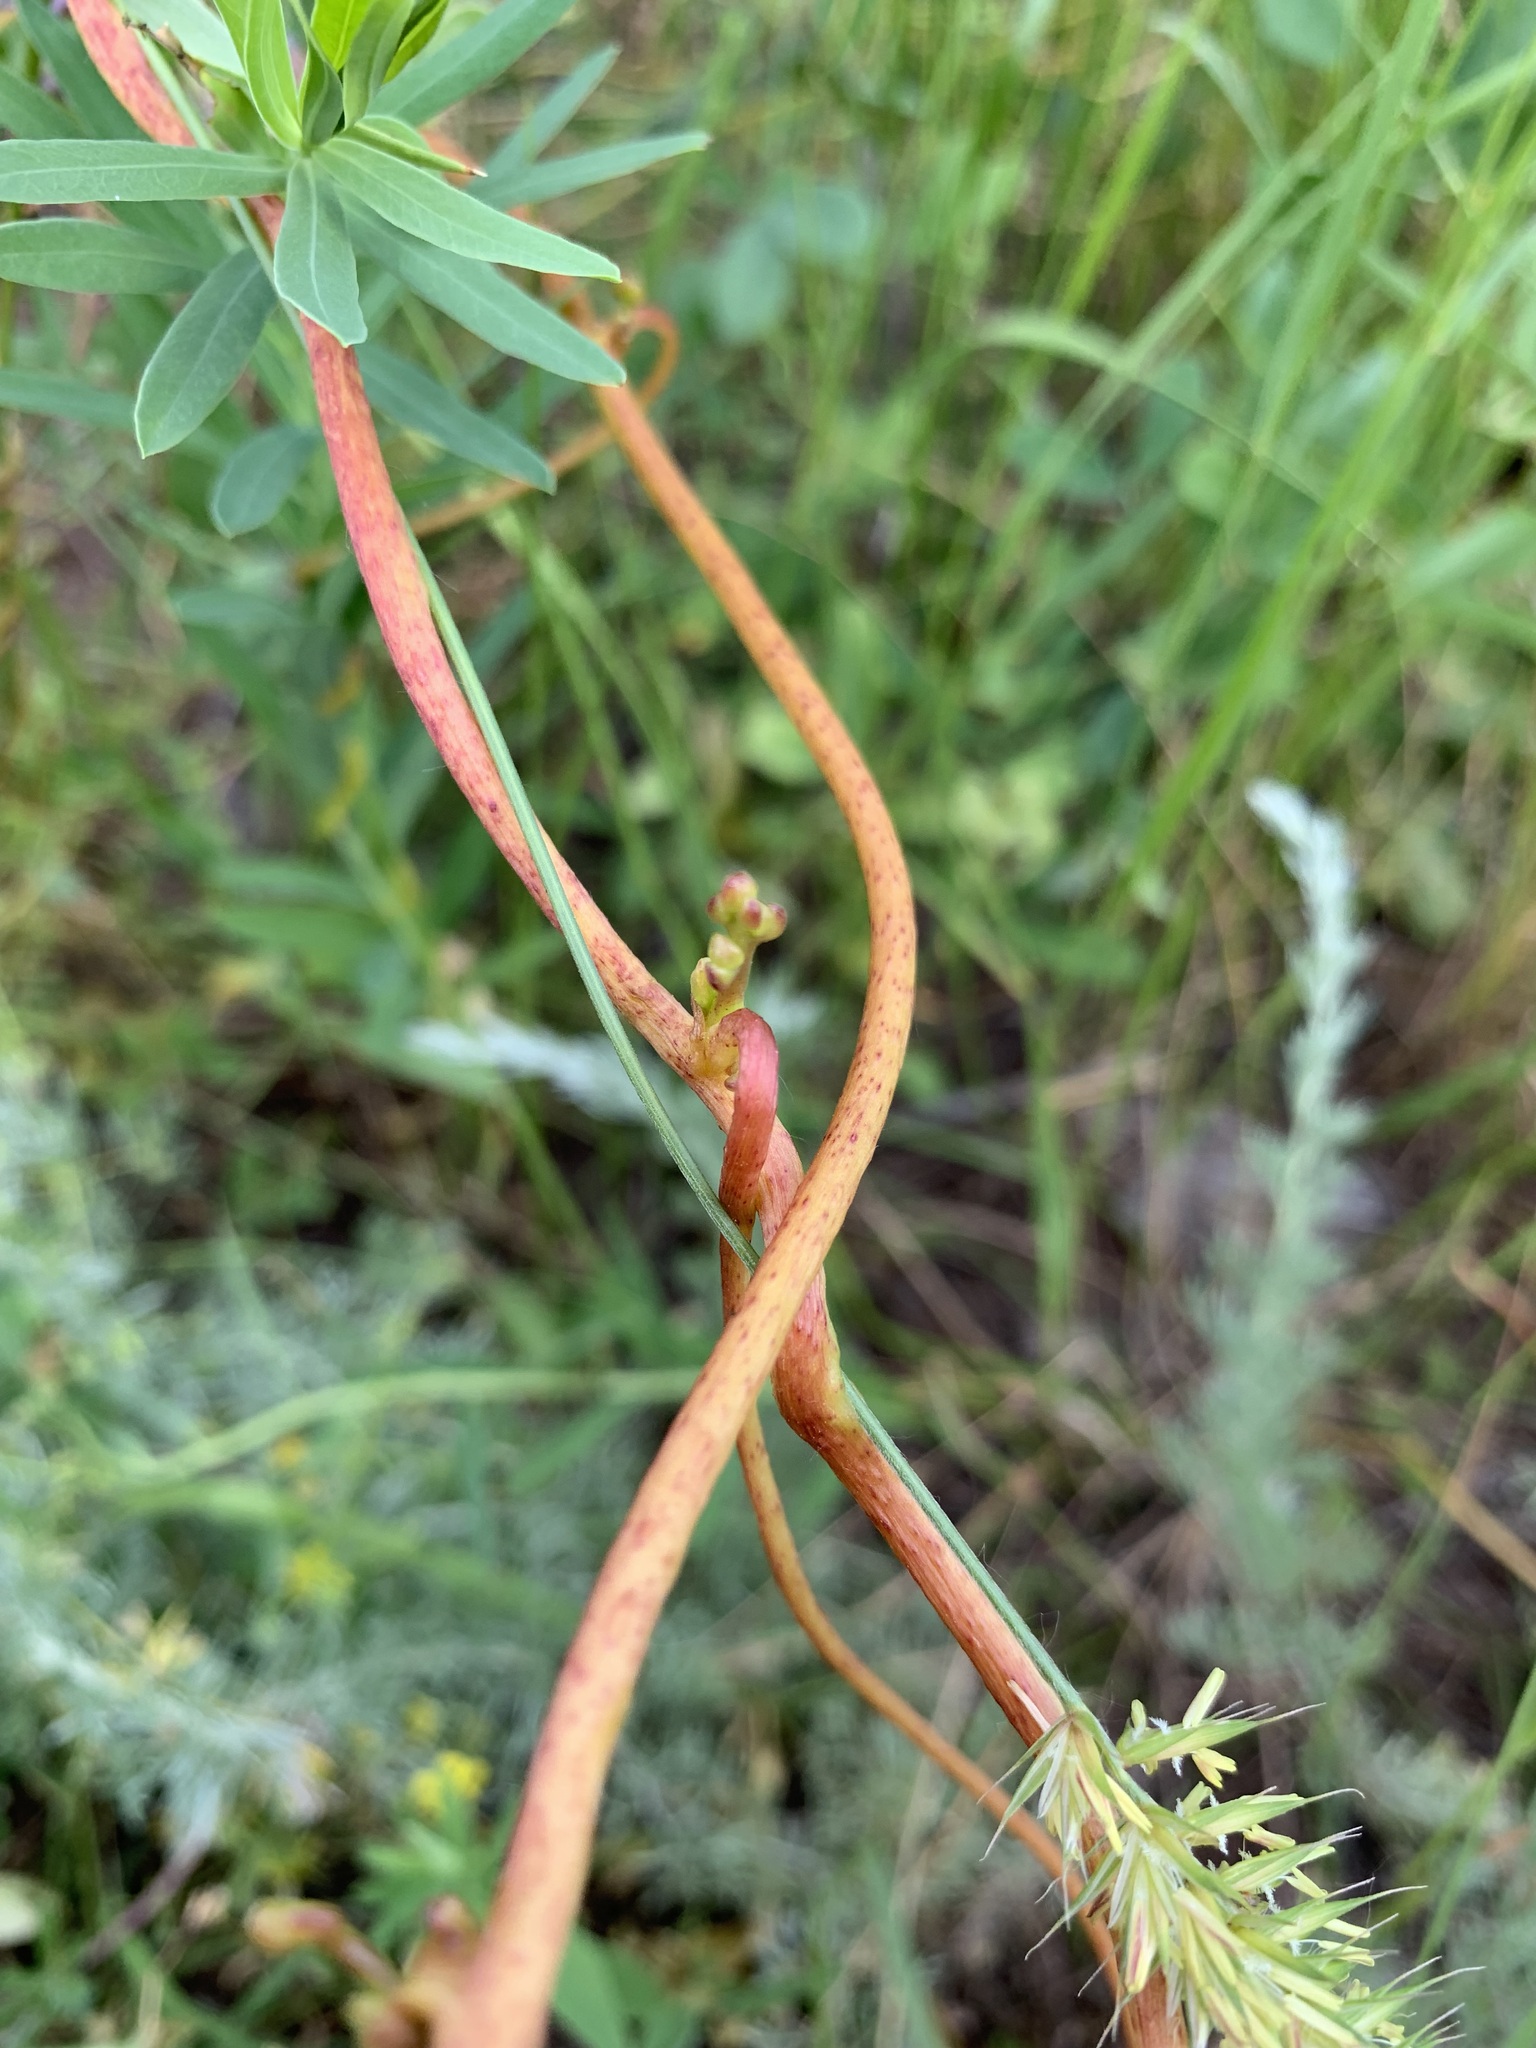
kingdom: Plantae
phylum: Tracheophyta
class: Magnoliopsida
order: Solanales
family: Convolvulaceae
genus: Cuscuta
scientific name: Cuscuta monogyna
